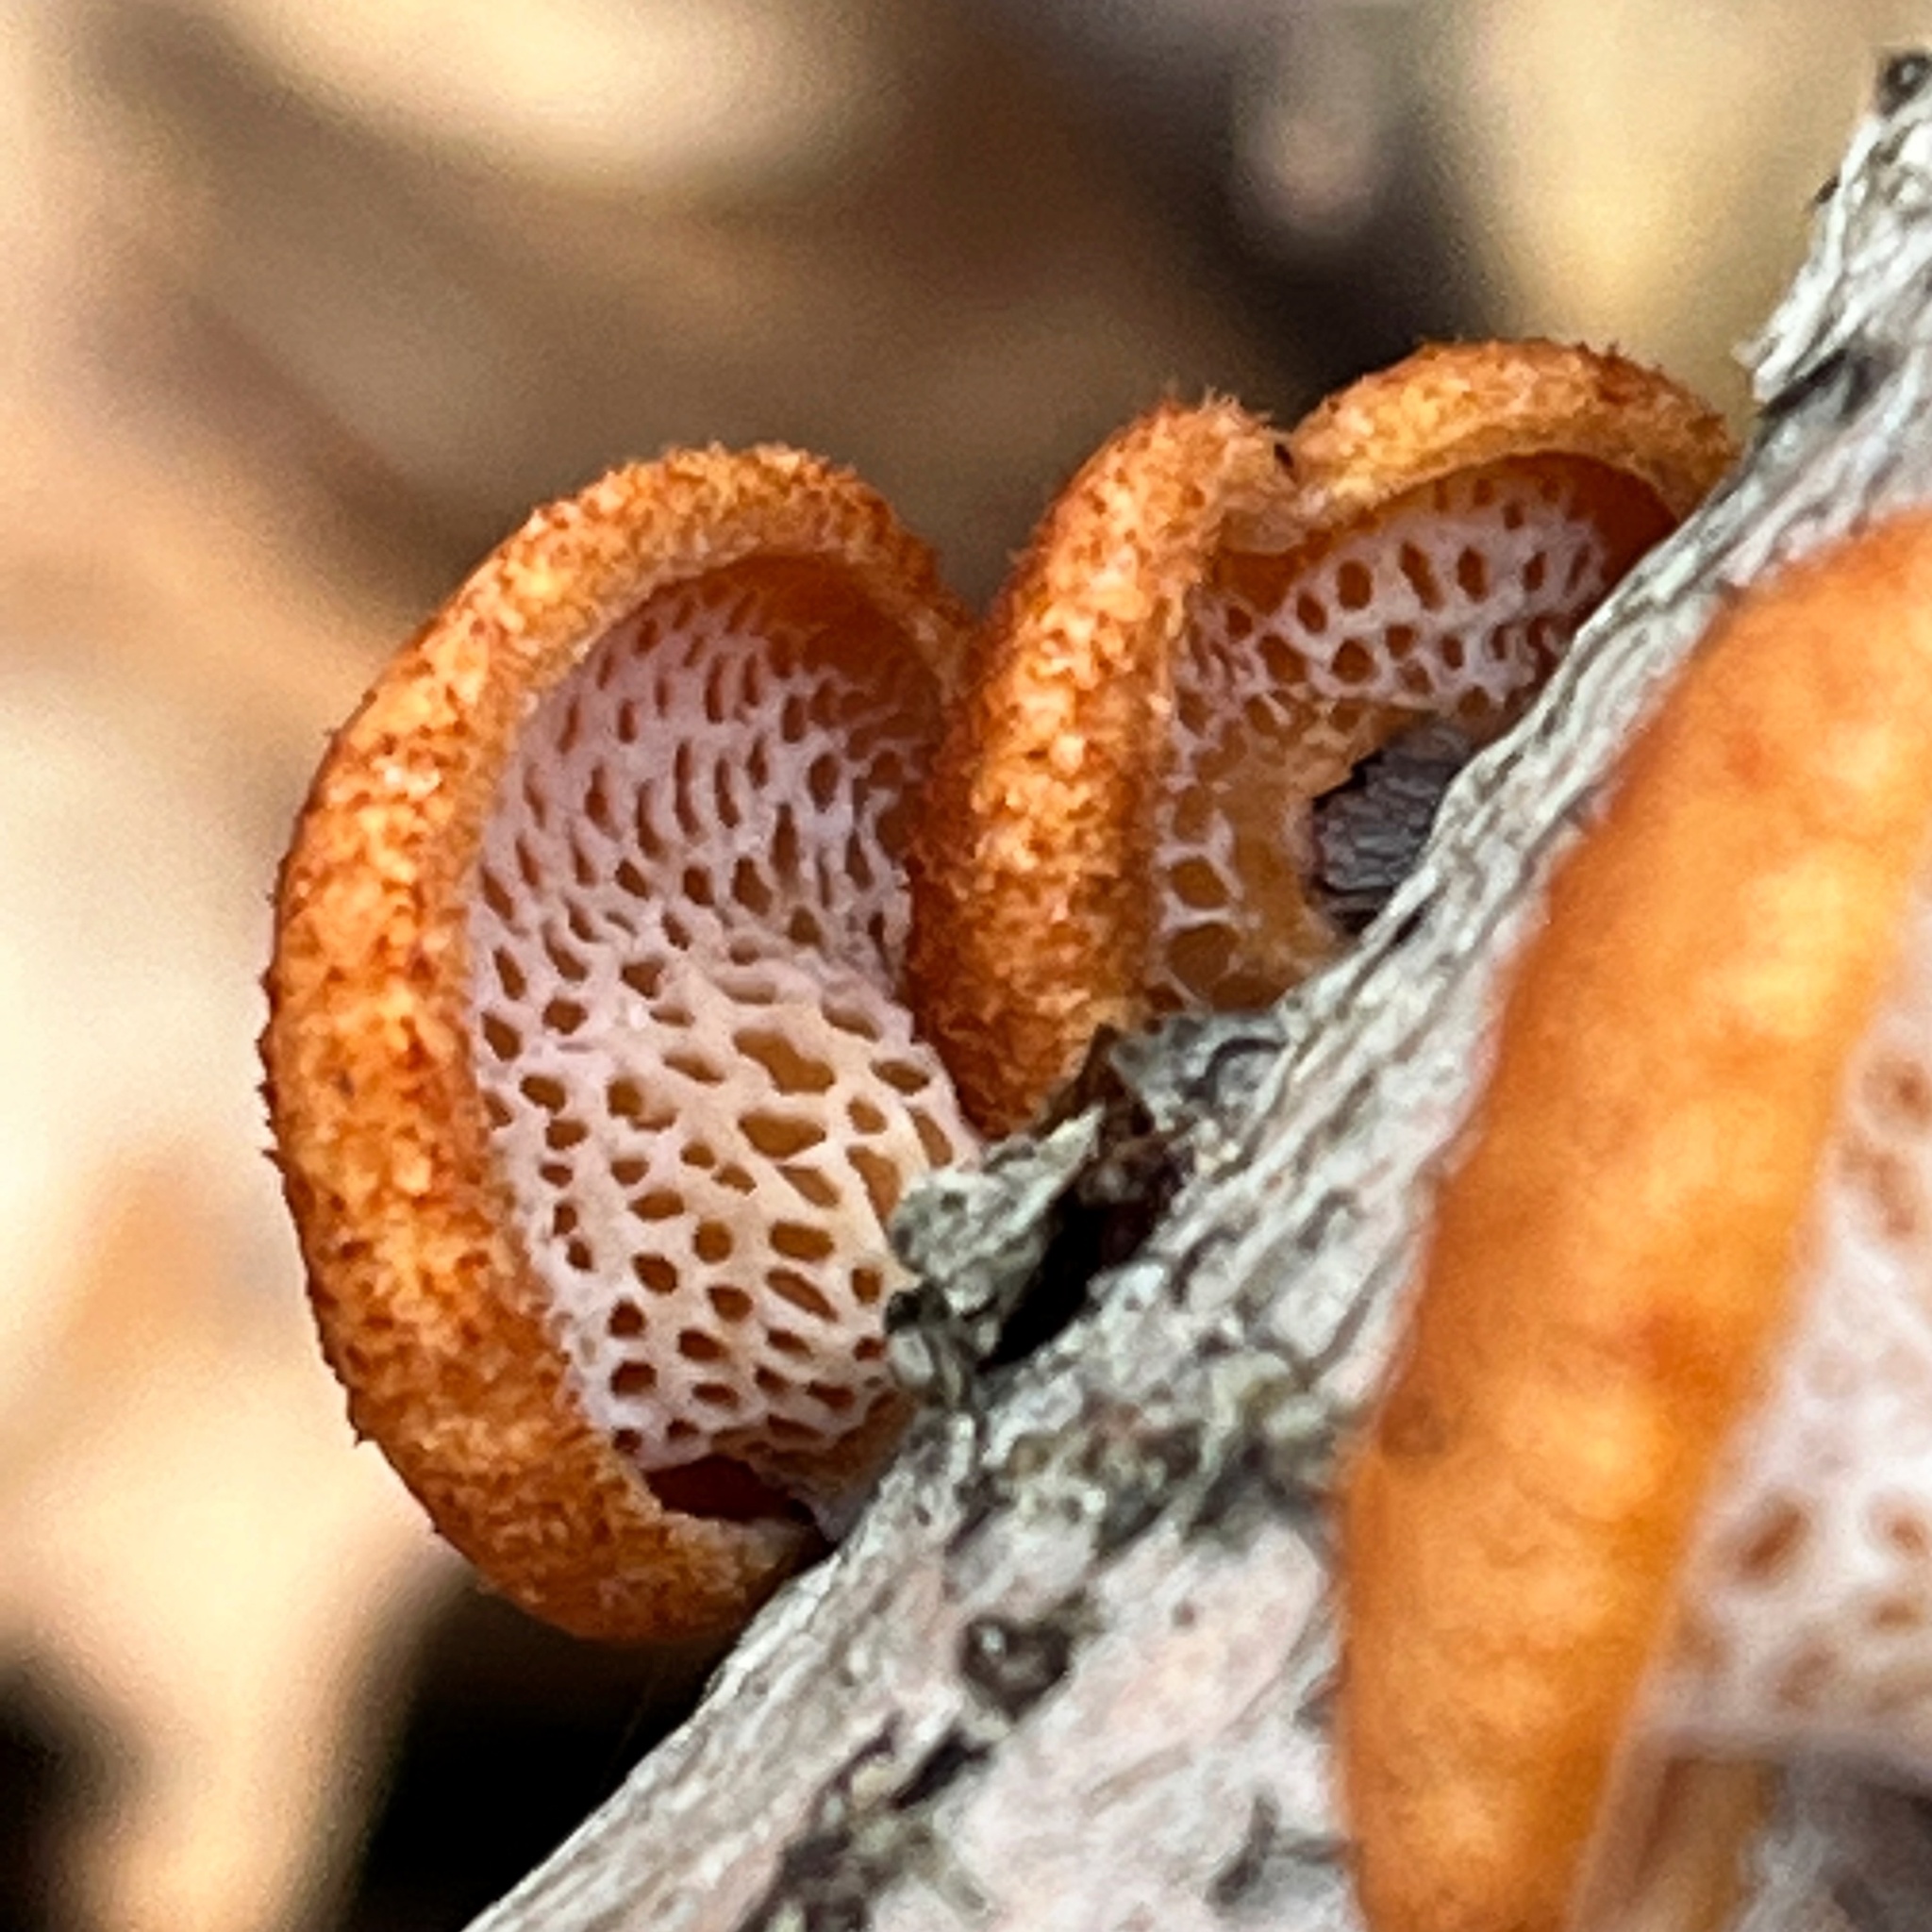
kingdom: Fungi
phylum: Basidiomycota
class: Agaricomycetes
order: Polyporales
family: Polyporaceae
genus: Neofavolus
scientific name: Neofavolus alveolaris
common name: Hexagonal-pored polypore
